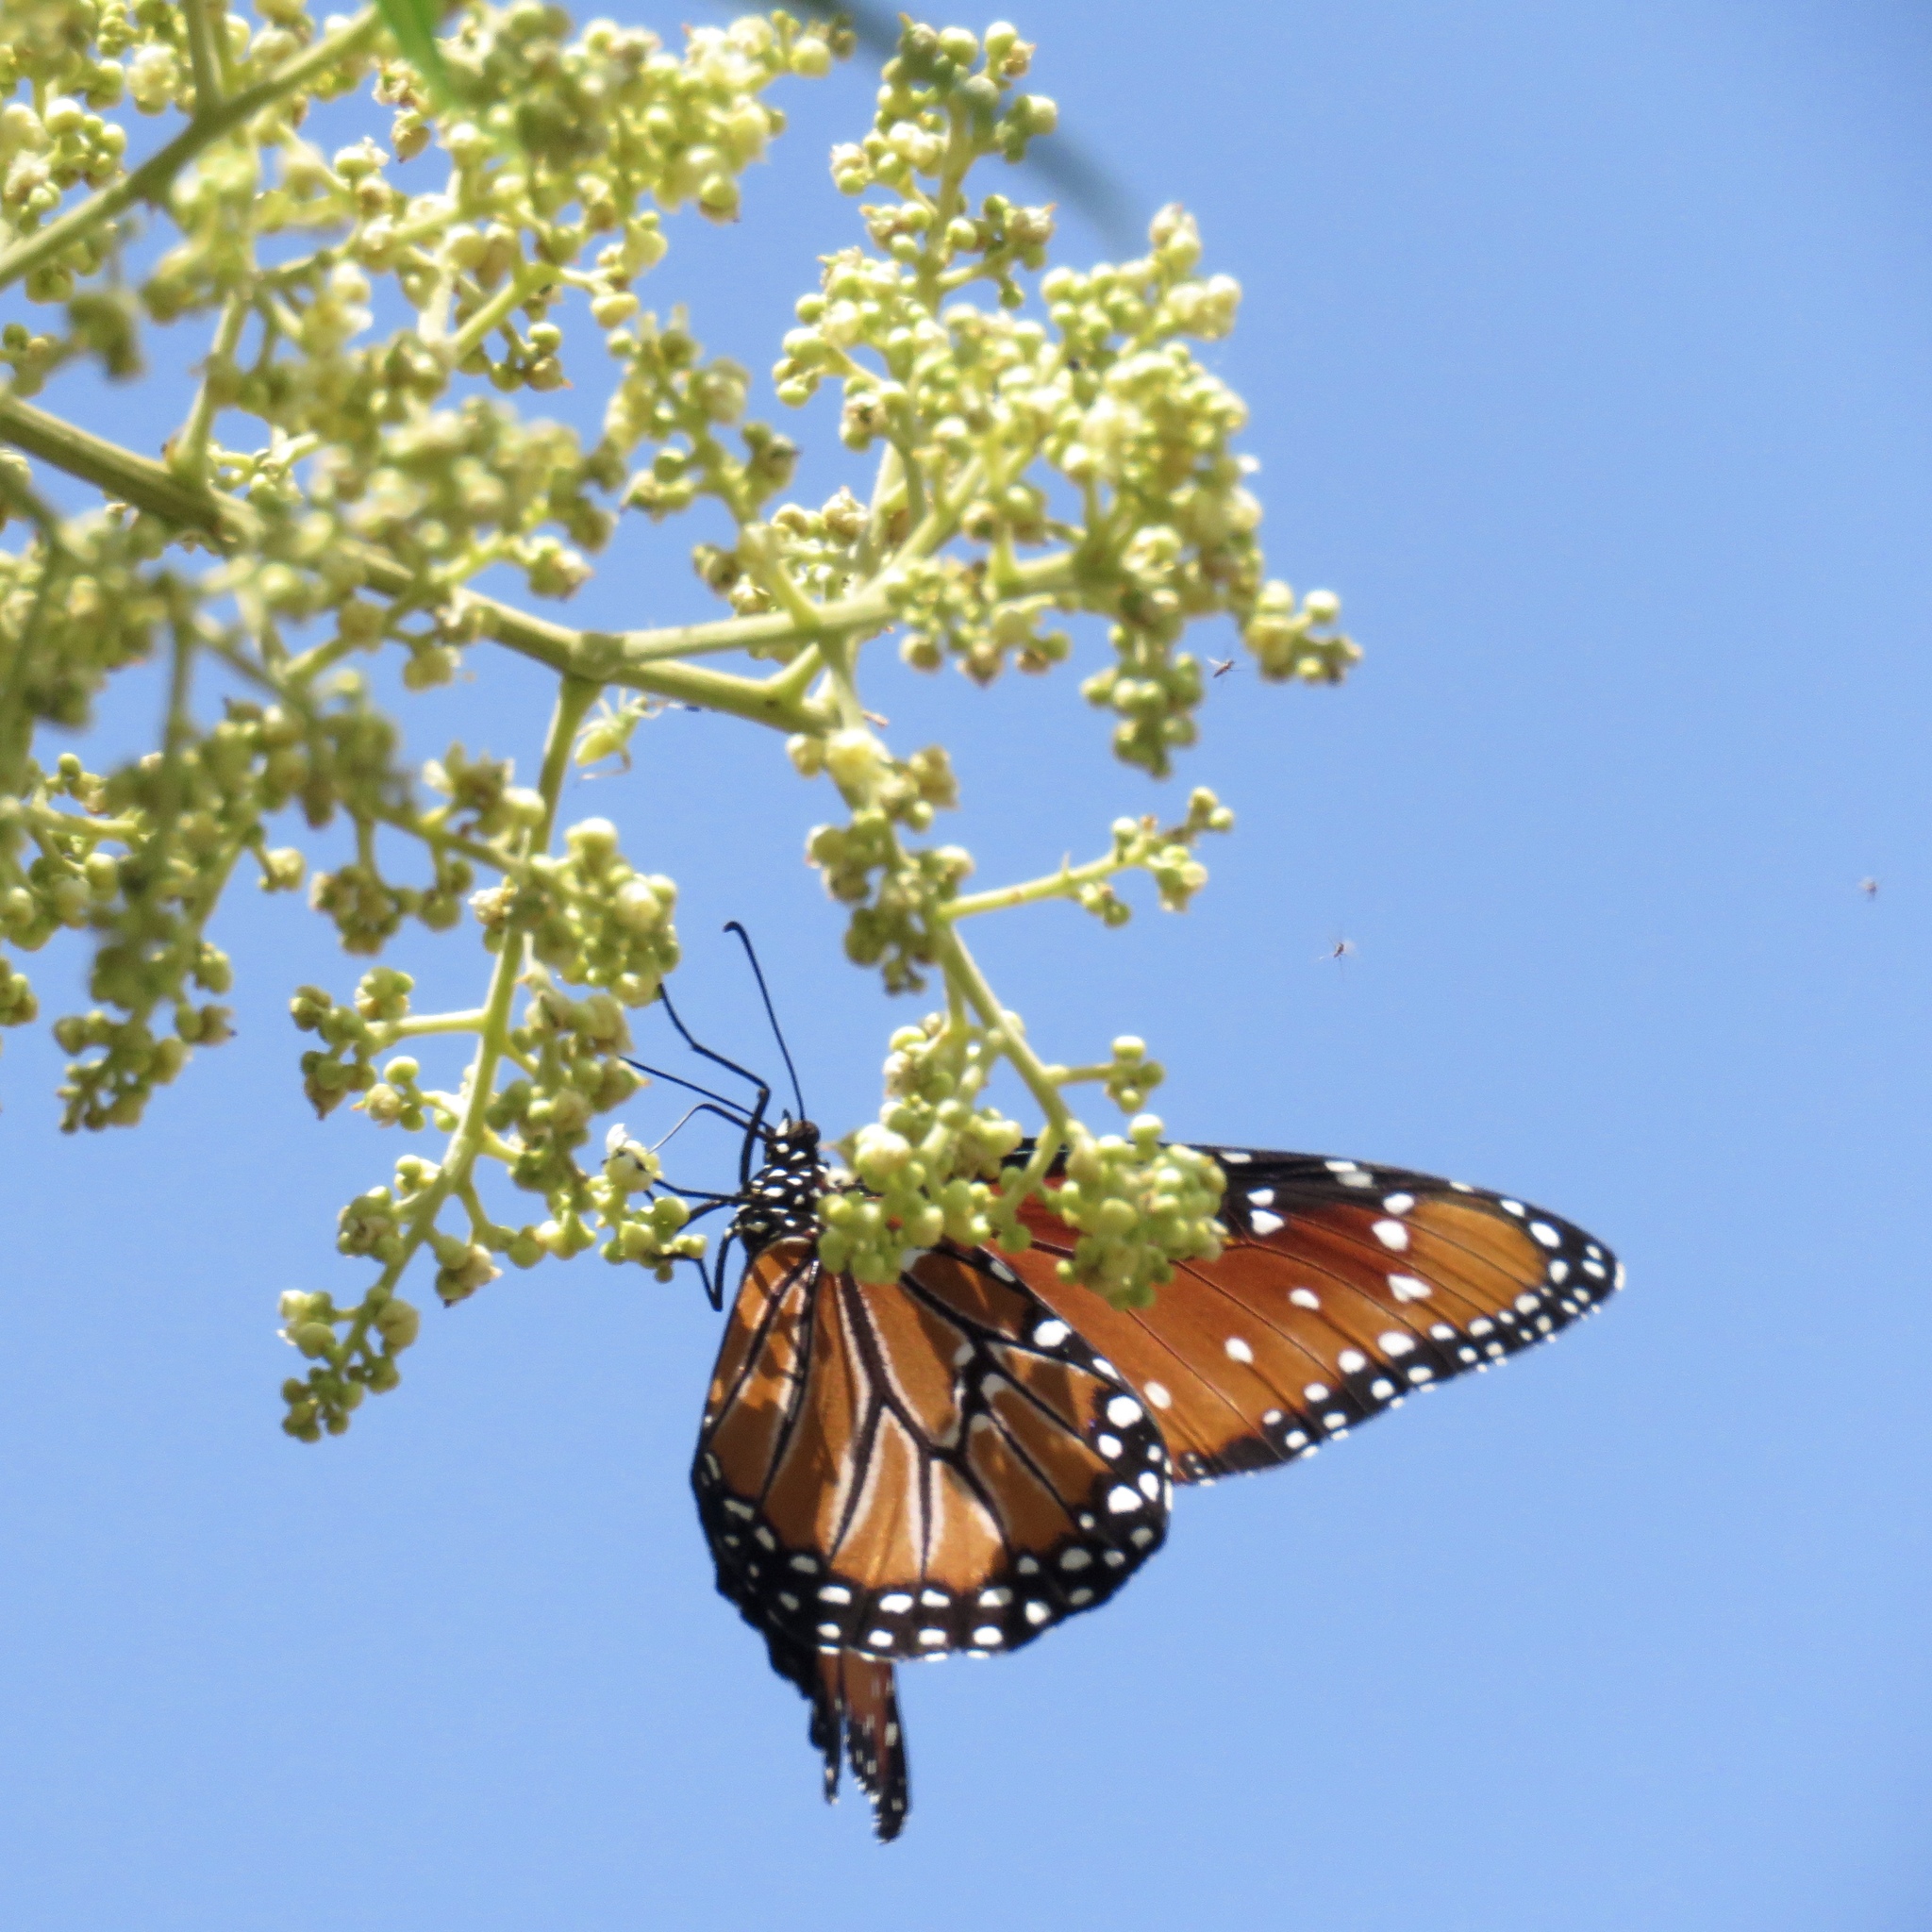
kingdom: Animalia
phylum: Arthropoda
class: Insecta
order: Lepidoptera
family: Nymphalidae
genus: Danaus
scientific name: Danaus gilippus
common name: Queen
